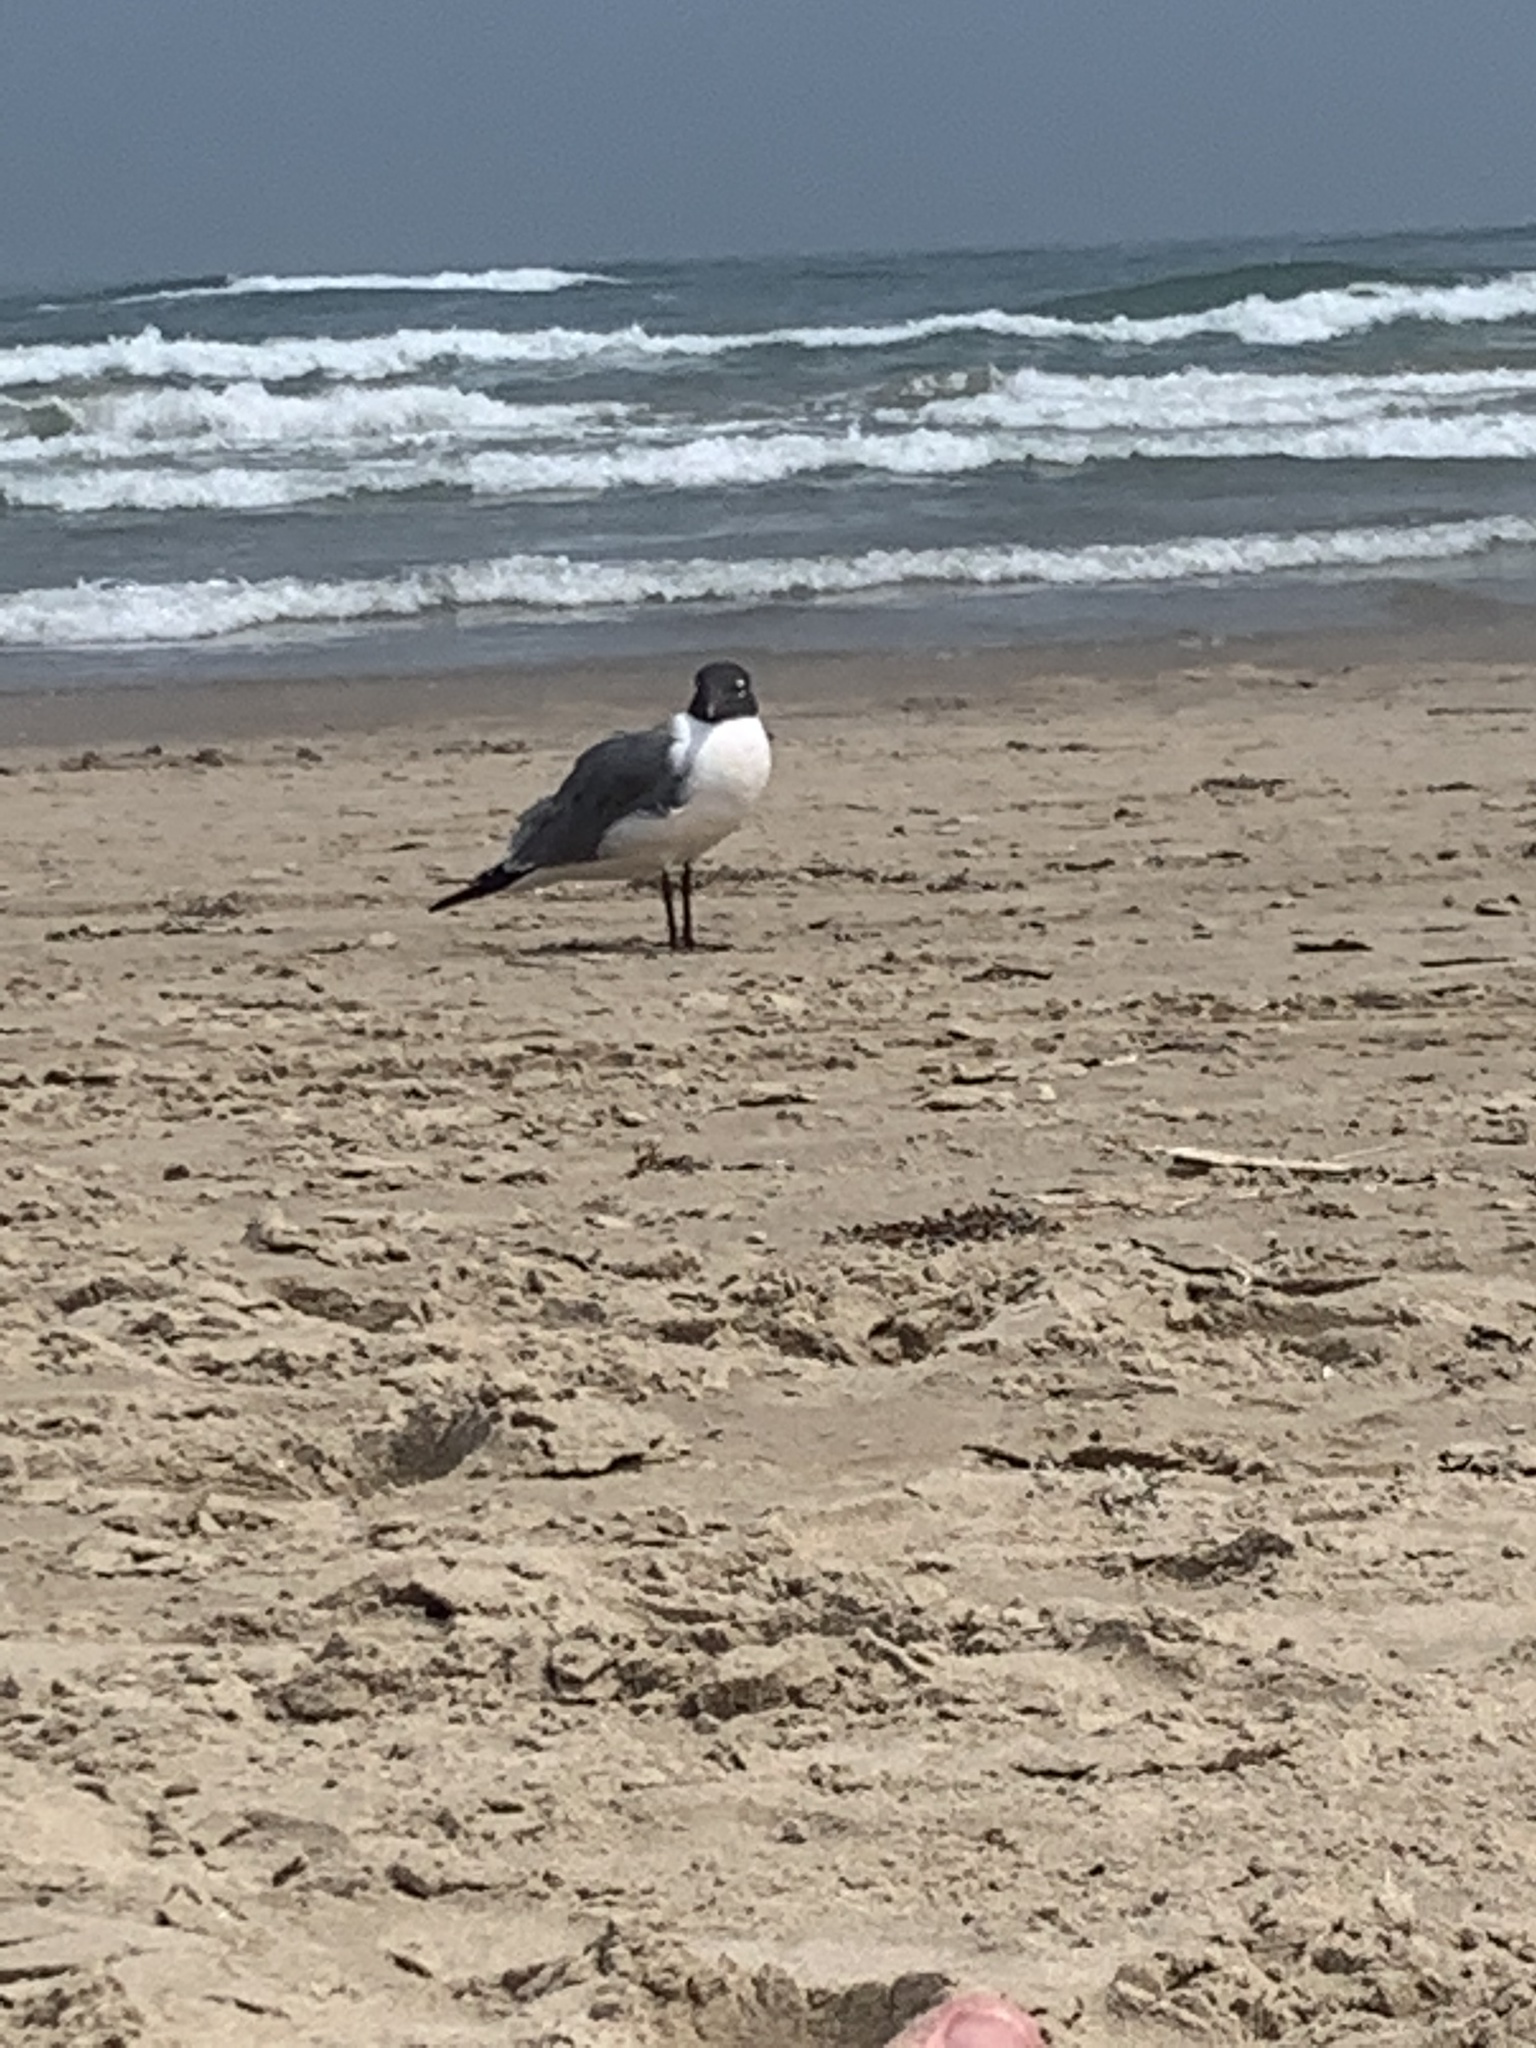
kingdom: Animalia
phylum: Chordata
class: Aves
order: Charadriiformes
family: Laridae
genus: Leucophaeus
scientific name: Leucophaeus atricilla
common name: Laughing gull
